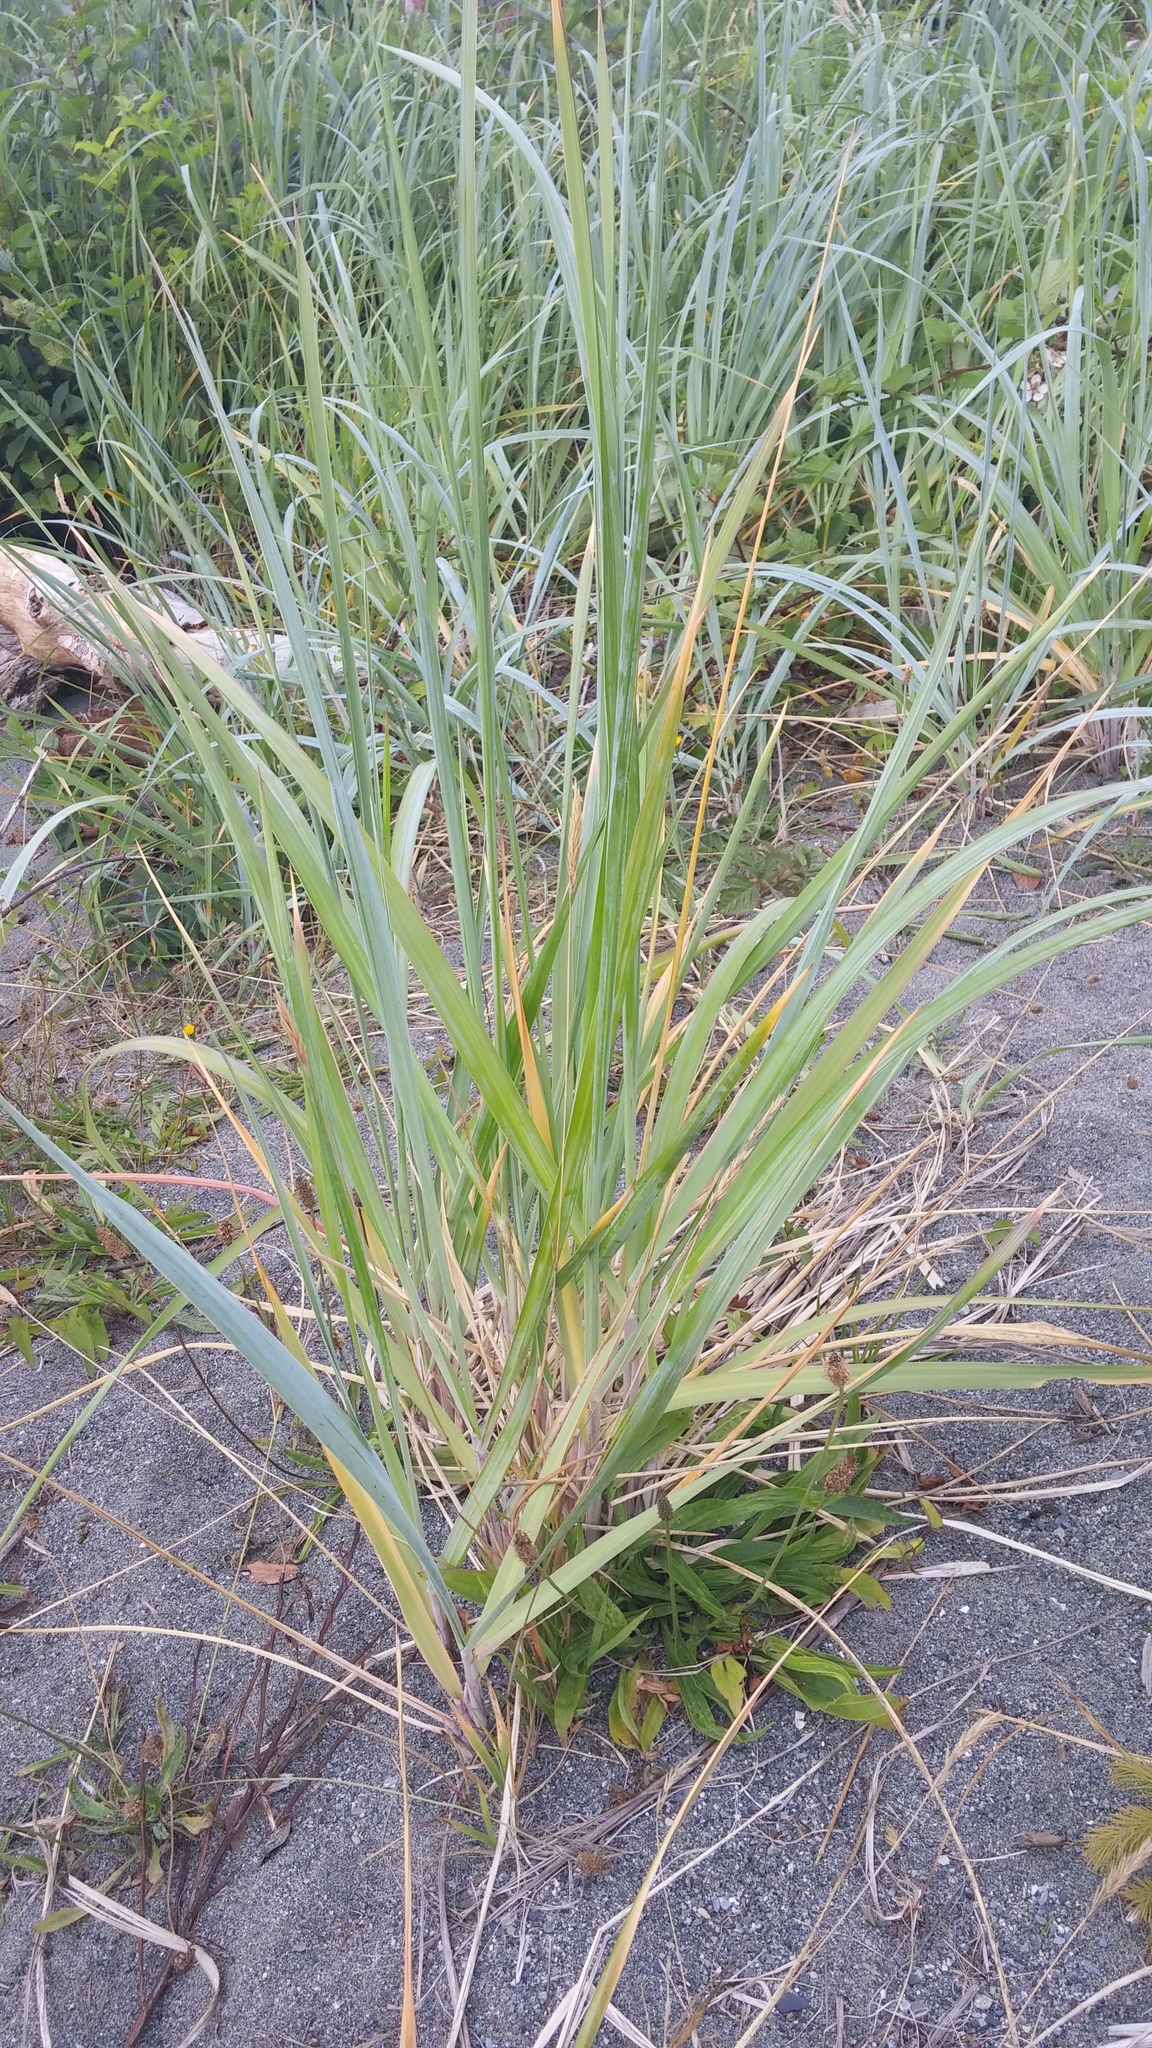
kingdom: Plantae
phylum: Tracheophyta
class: Liliopsida
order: Poales
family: Poaceae
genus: Leymus
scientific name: Leymus mollis
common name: American dune grass
